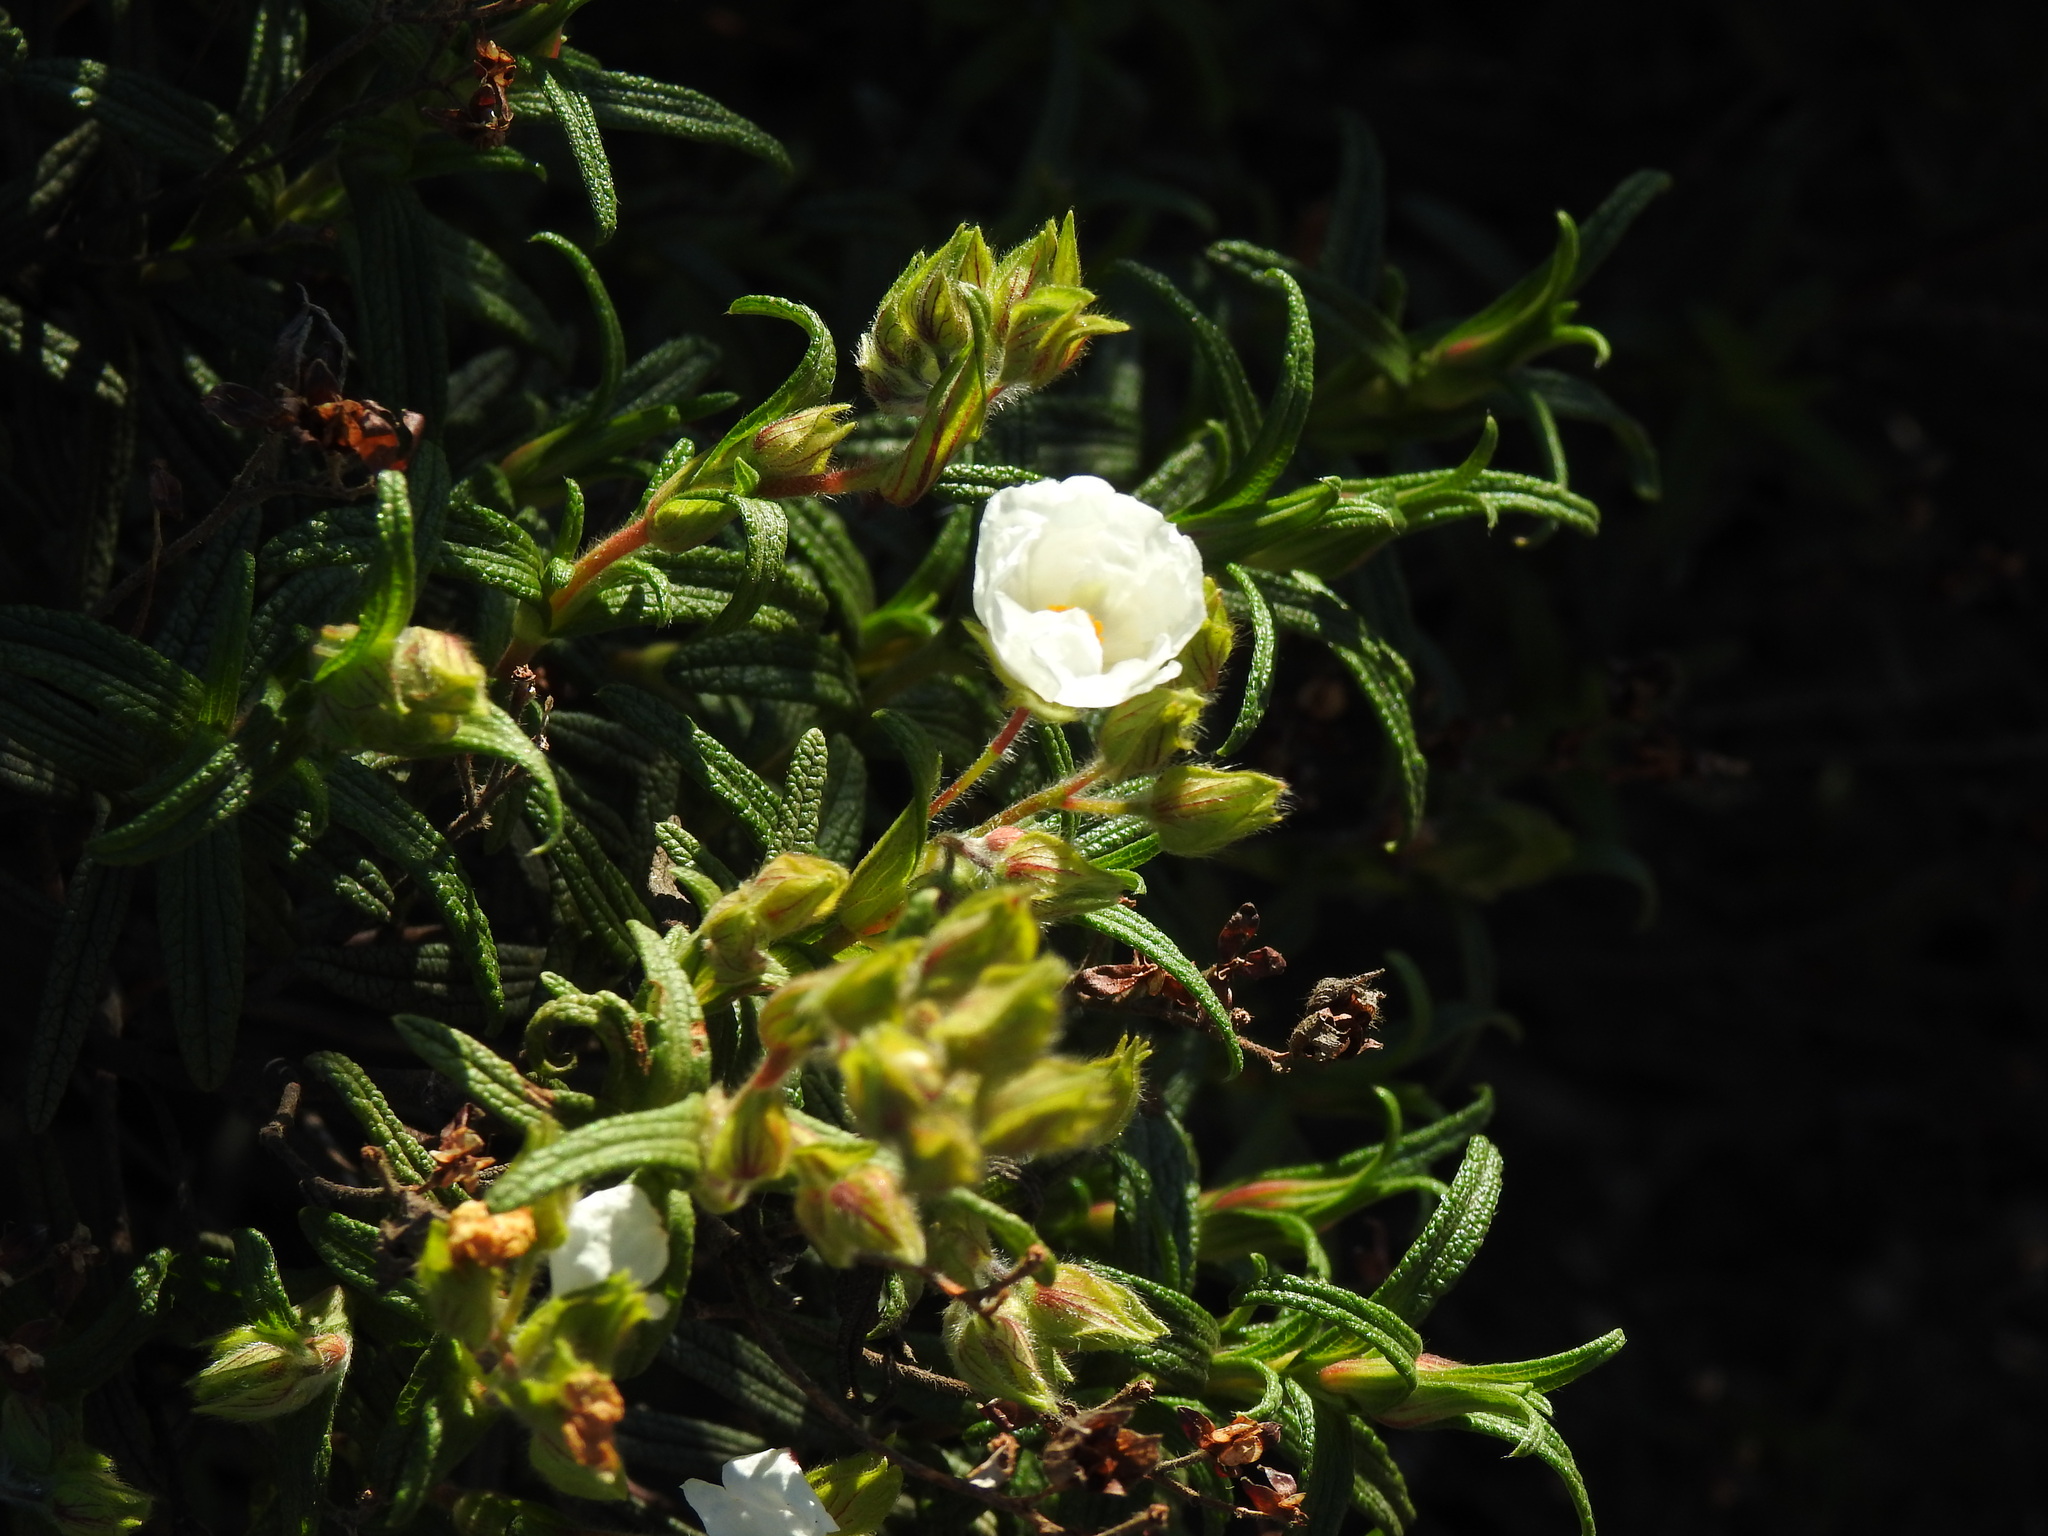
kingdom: Plantae
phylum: Tracheophyta
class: Magnoliopsida
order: Malvales
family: Cistaceae
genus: Cistus
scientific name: Cistus monspeliensis
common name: Montpelier cistus
